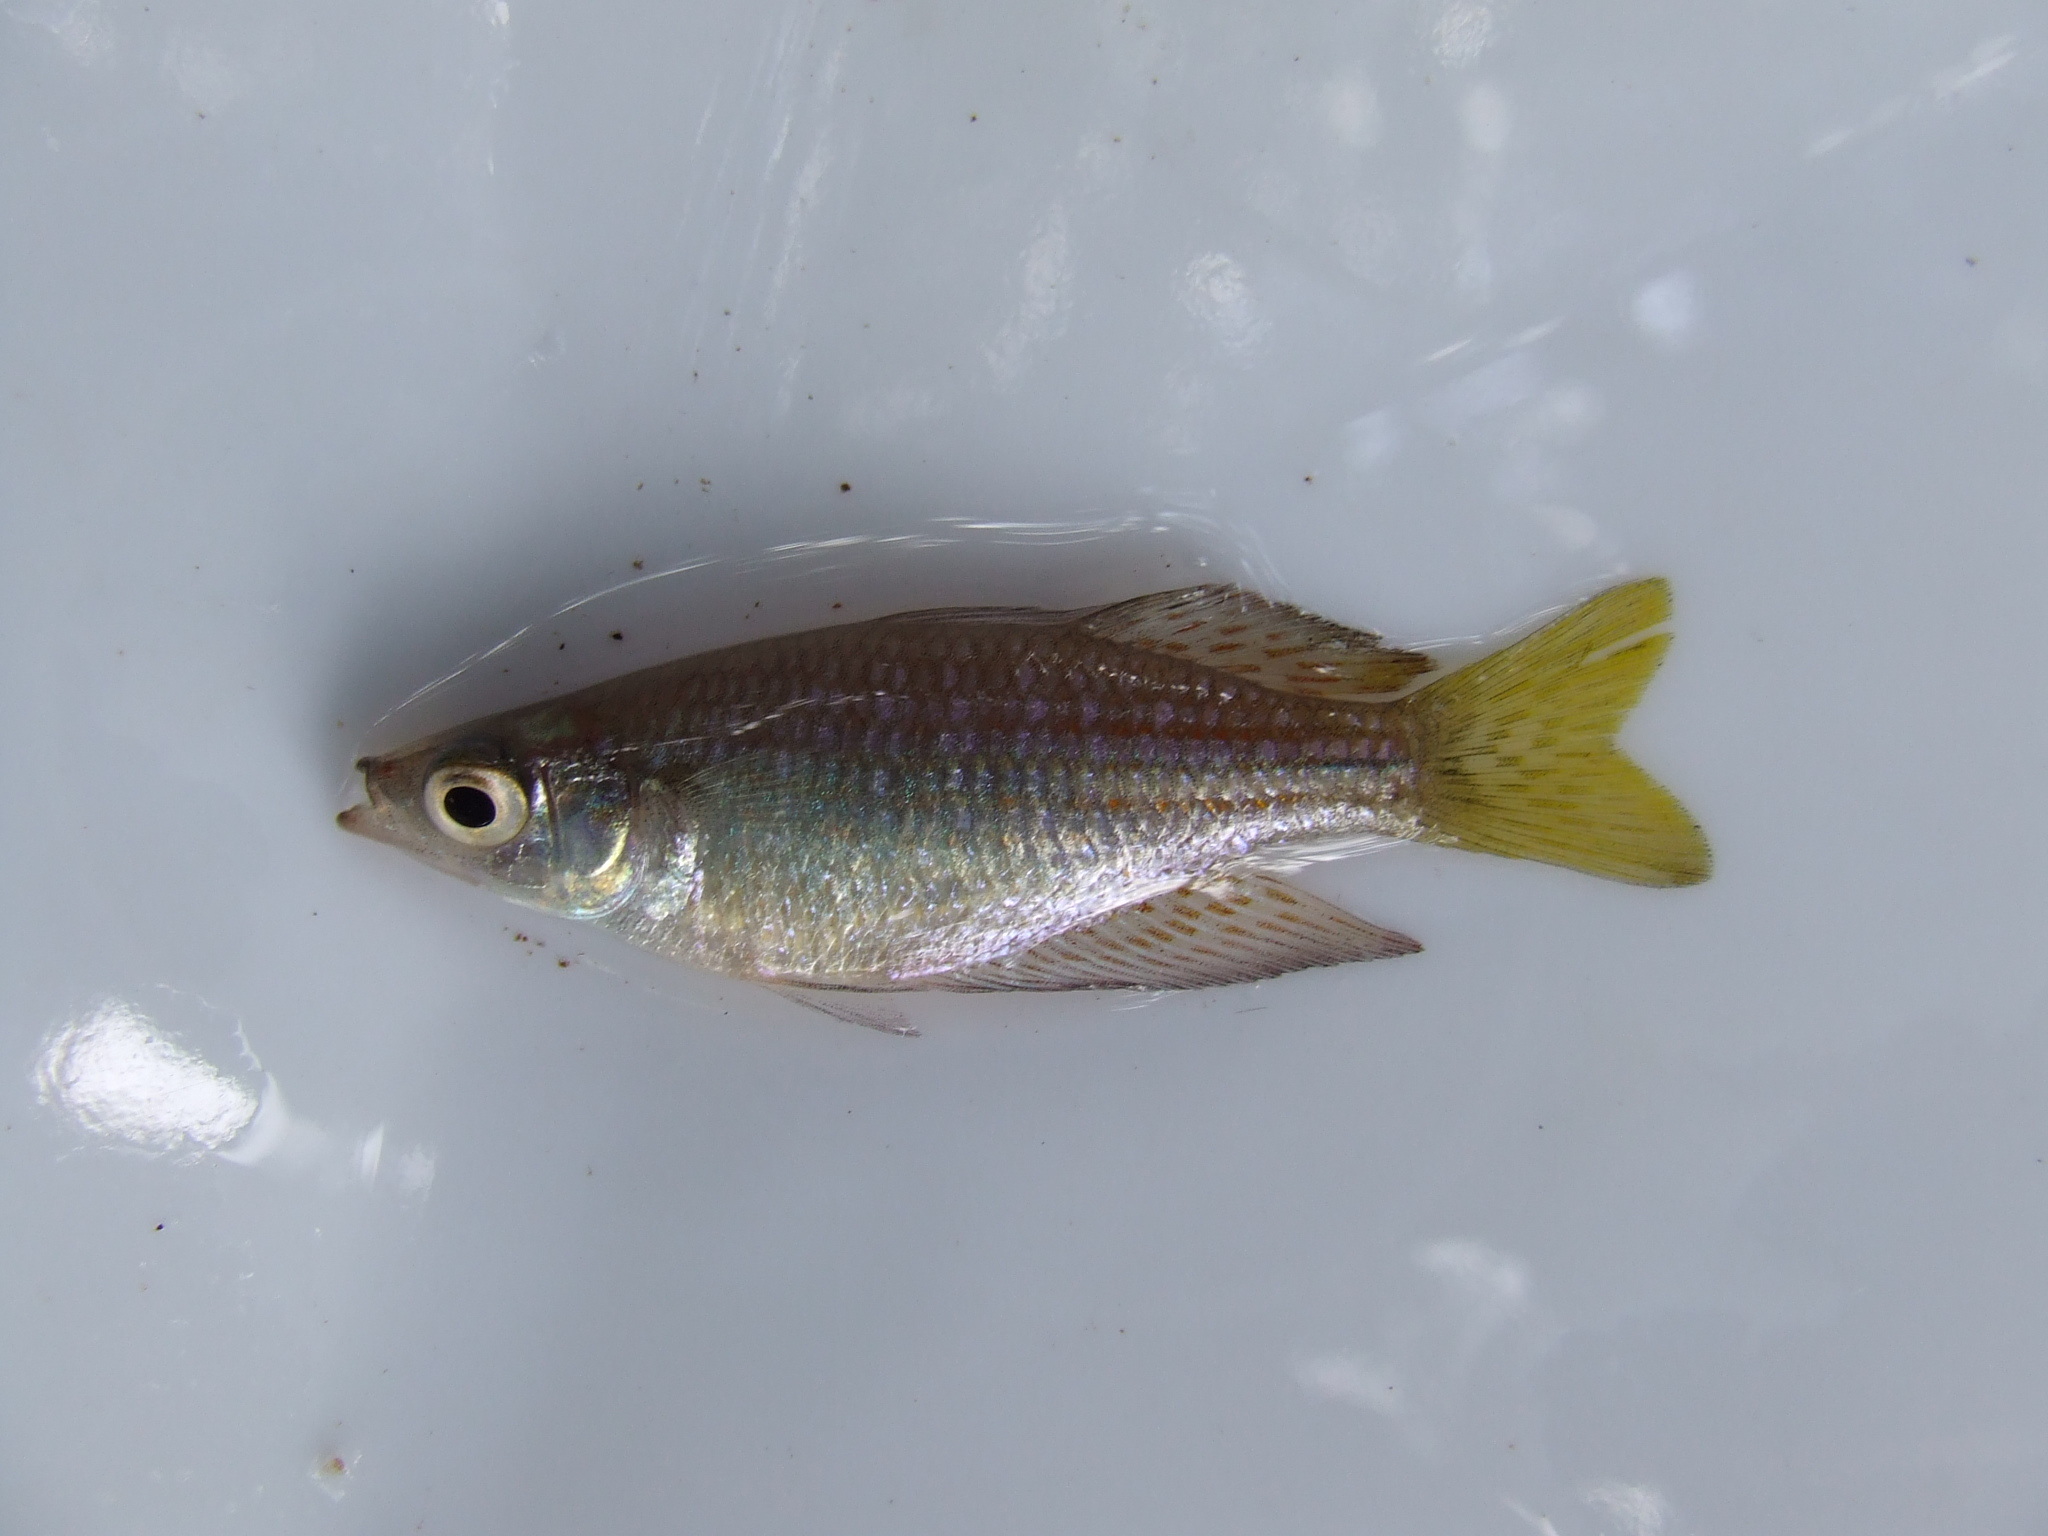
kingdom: Animalia
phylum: Chordata
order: Atheriniformes
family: Melanotaeniidae
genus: Melanotaenia
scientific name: Melanotaenia splendida
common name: Checkered rainbowfish
